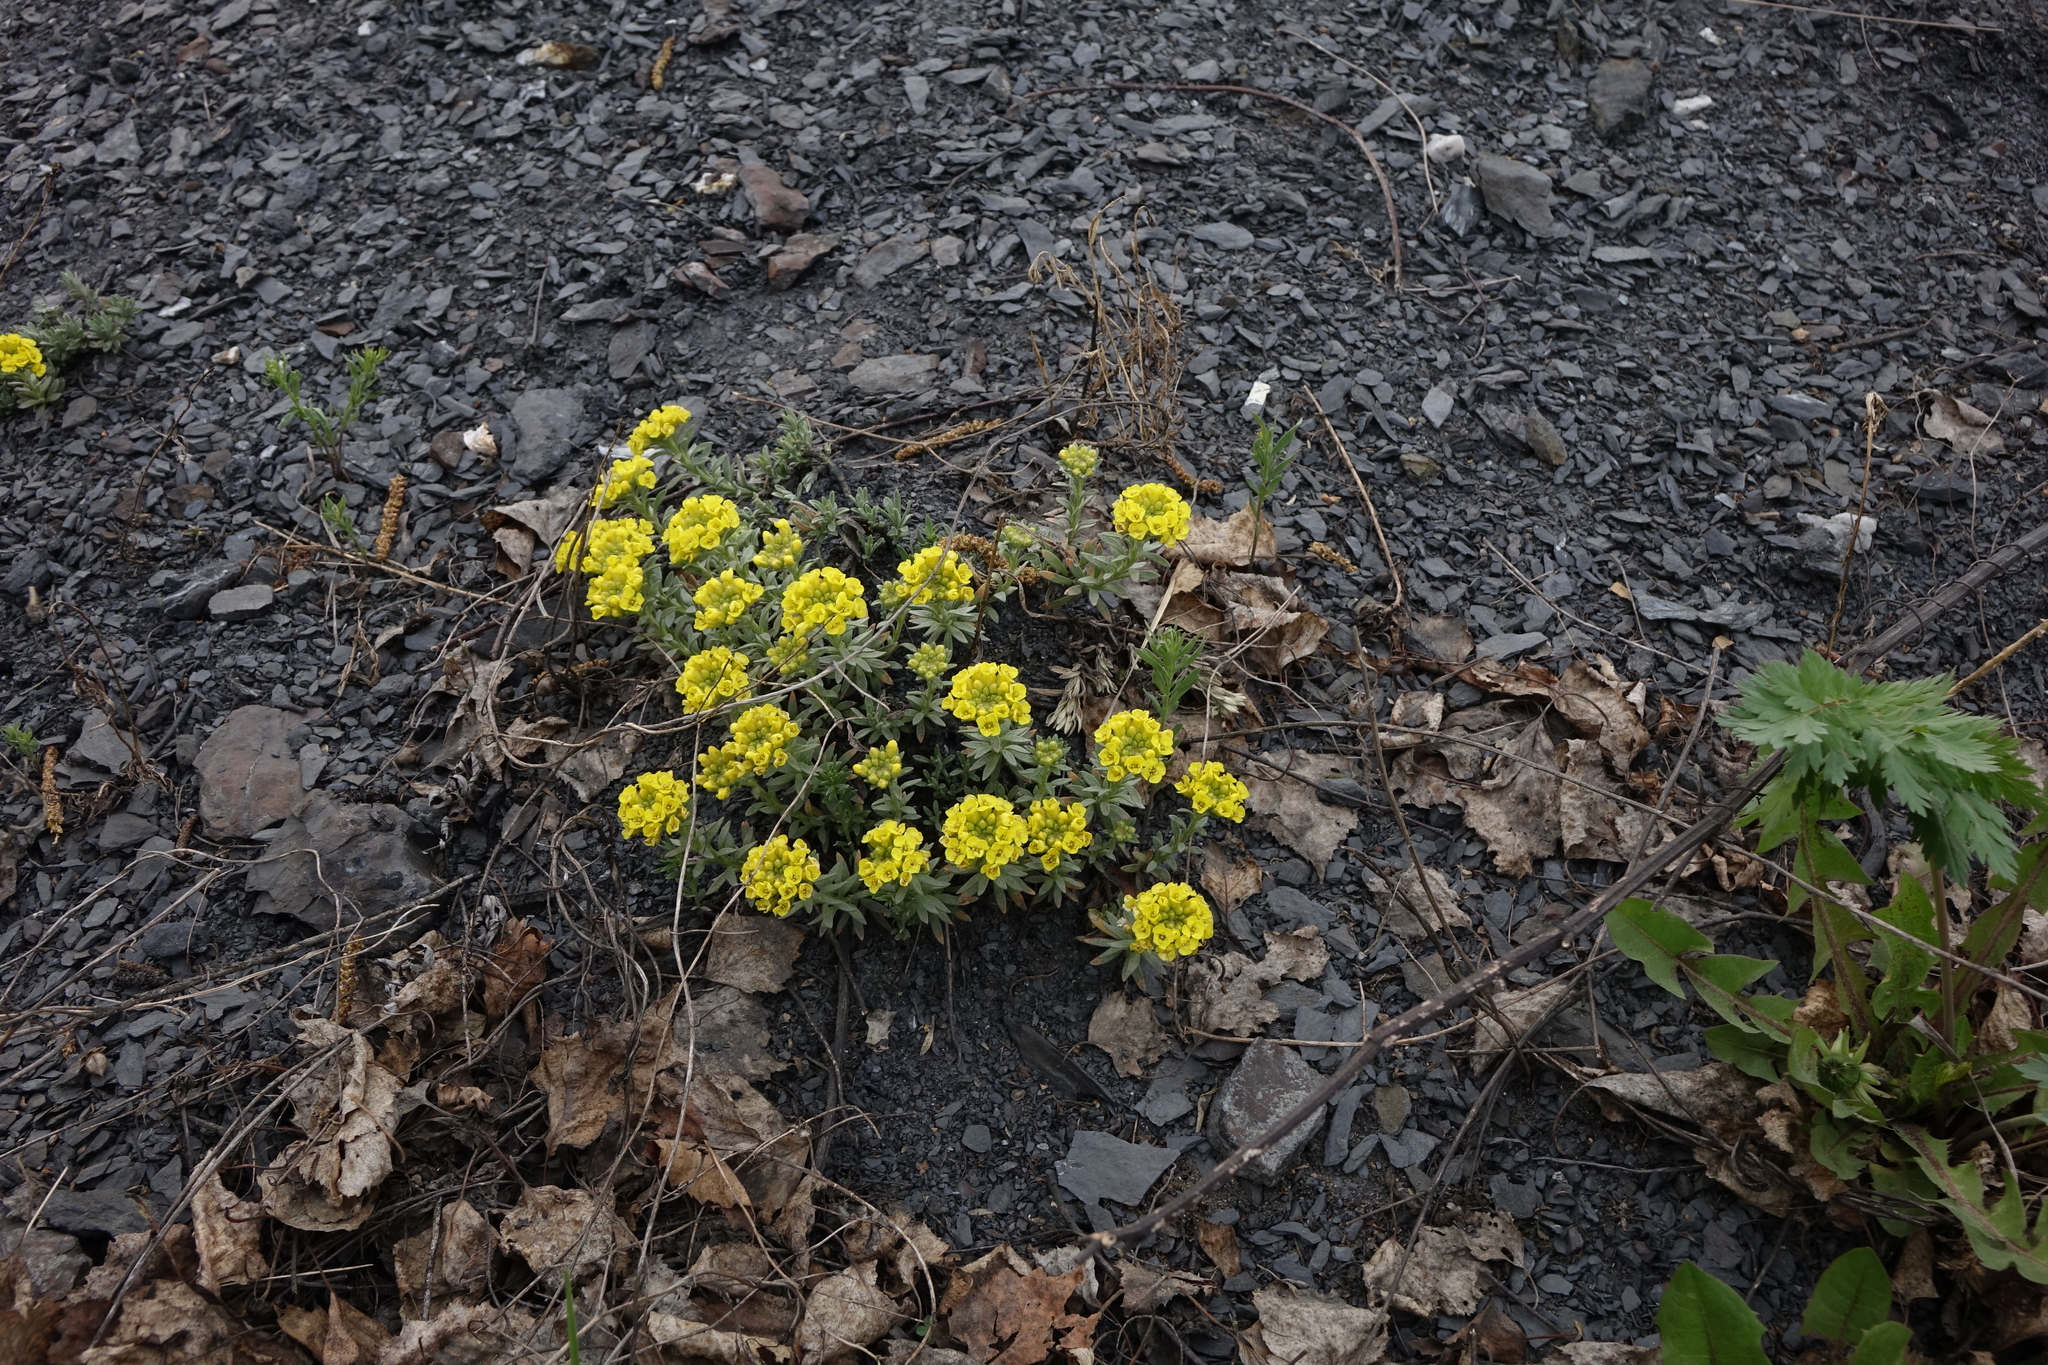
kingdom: Plantae
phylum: Tracheophyta
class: Magnoliopsida
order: Brassicales
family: Brassicaceae
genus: Alyssum
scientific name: Alyssum lenense
